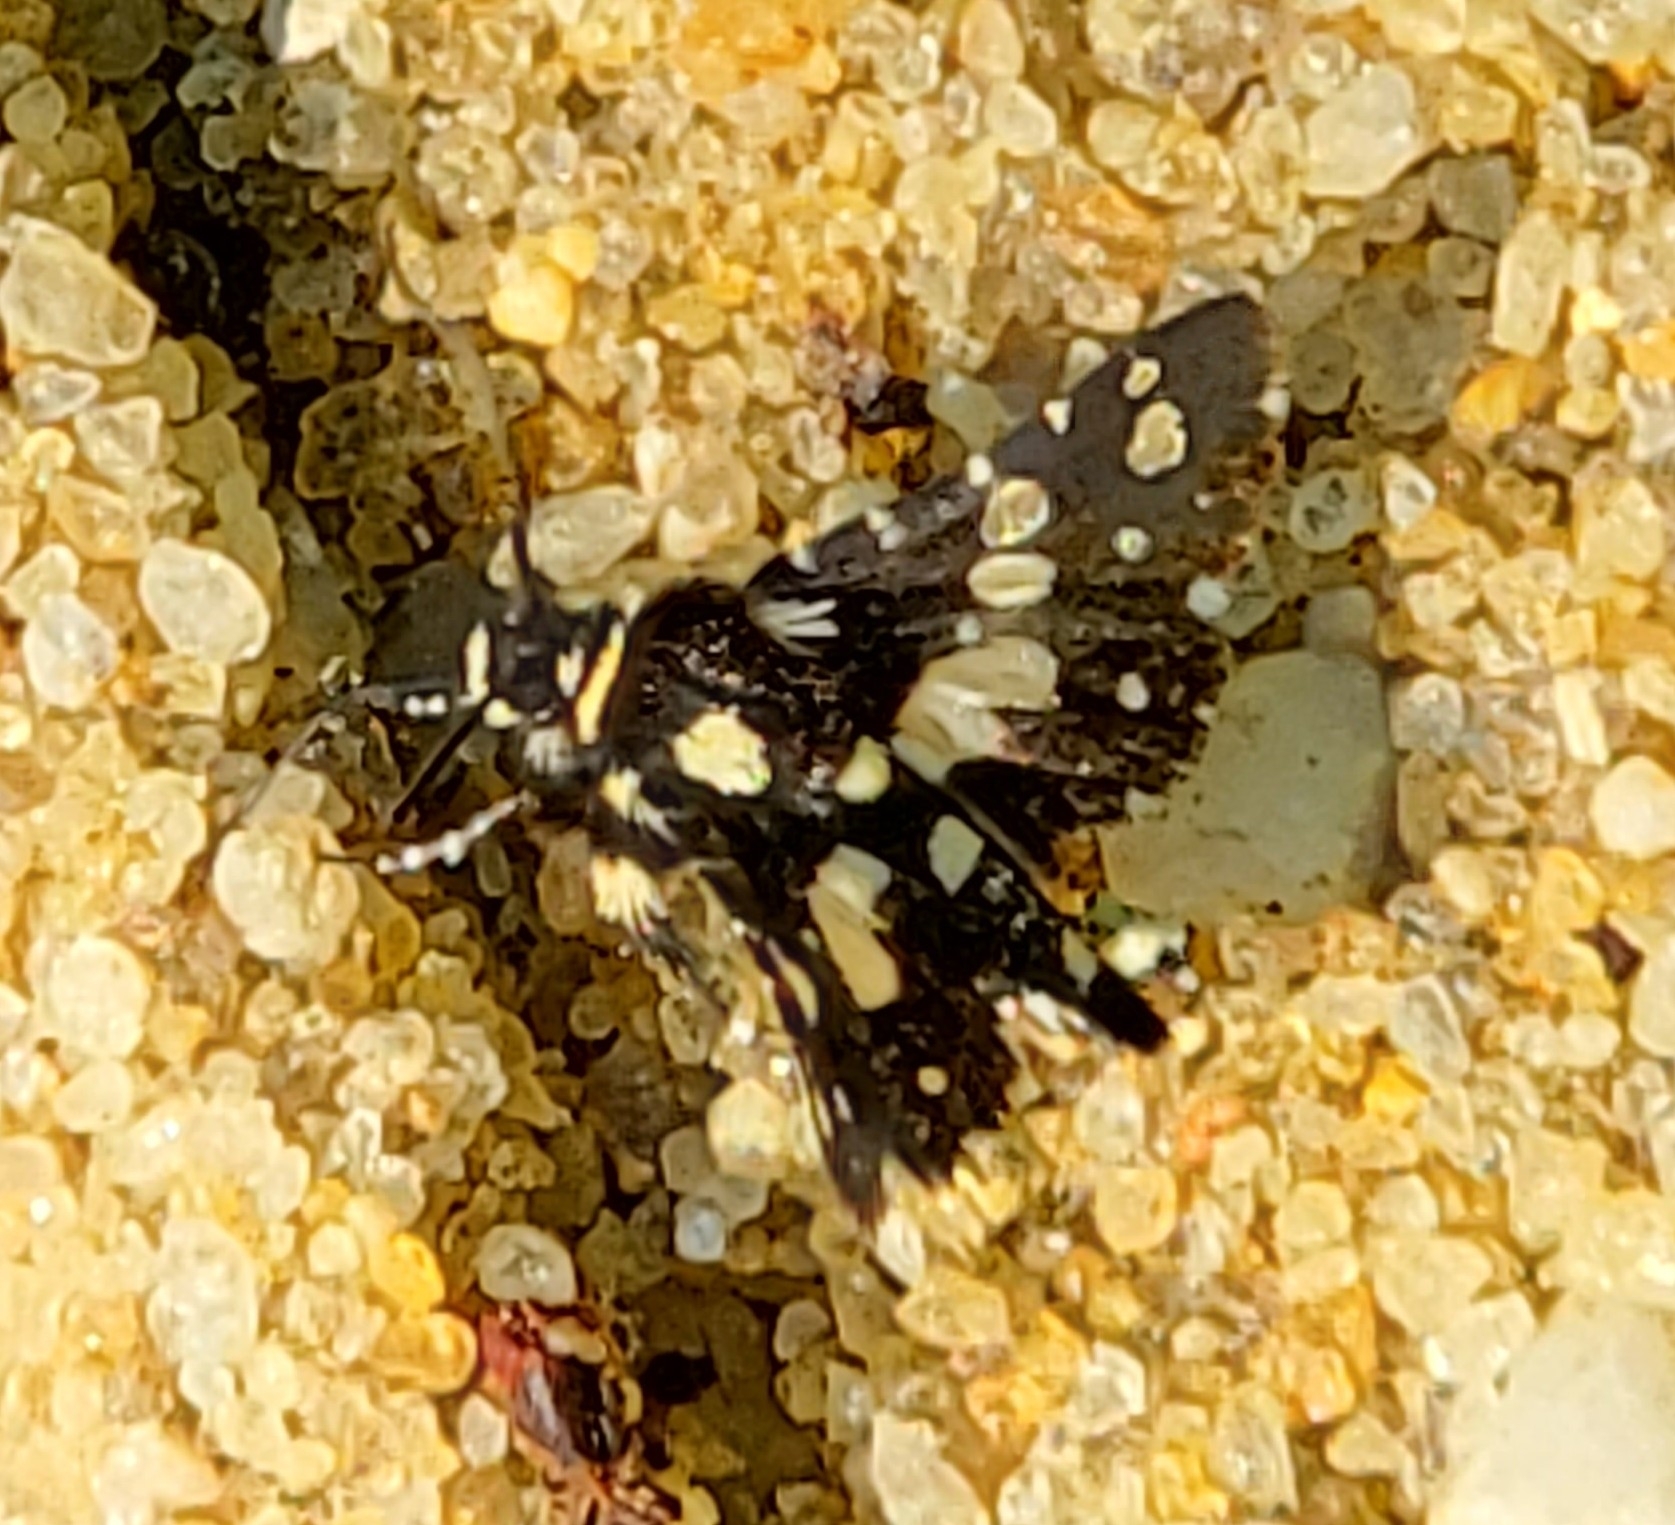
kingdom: Animalia
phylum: Arthropoda
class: Insecta
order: Lepidoptera
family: Thyrididae
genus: Pseudothyris
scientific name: Pseudothyris sepulchralis
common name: Mournful thyris moth
